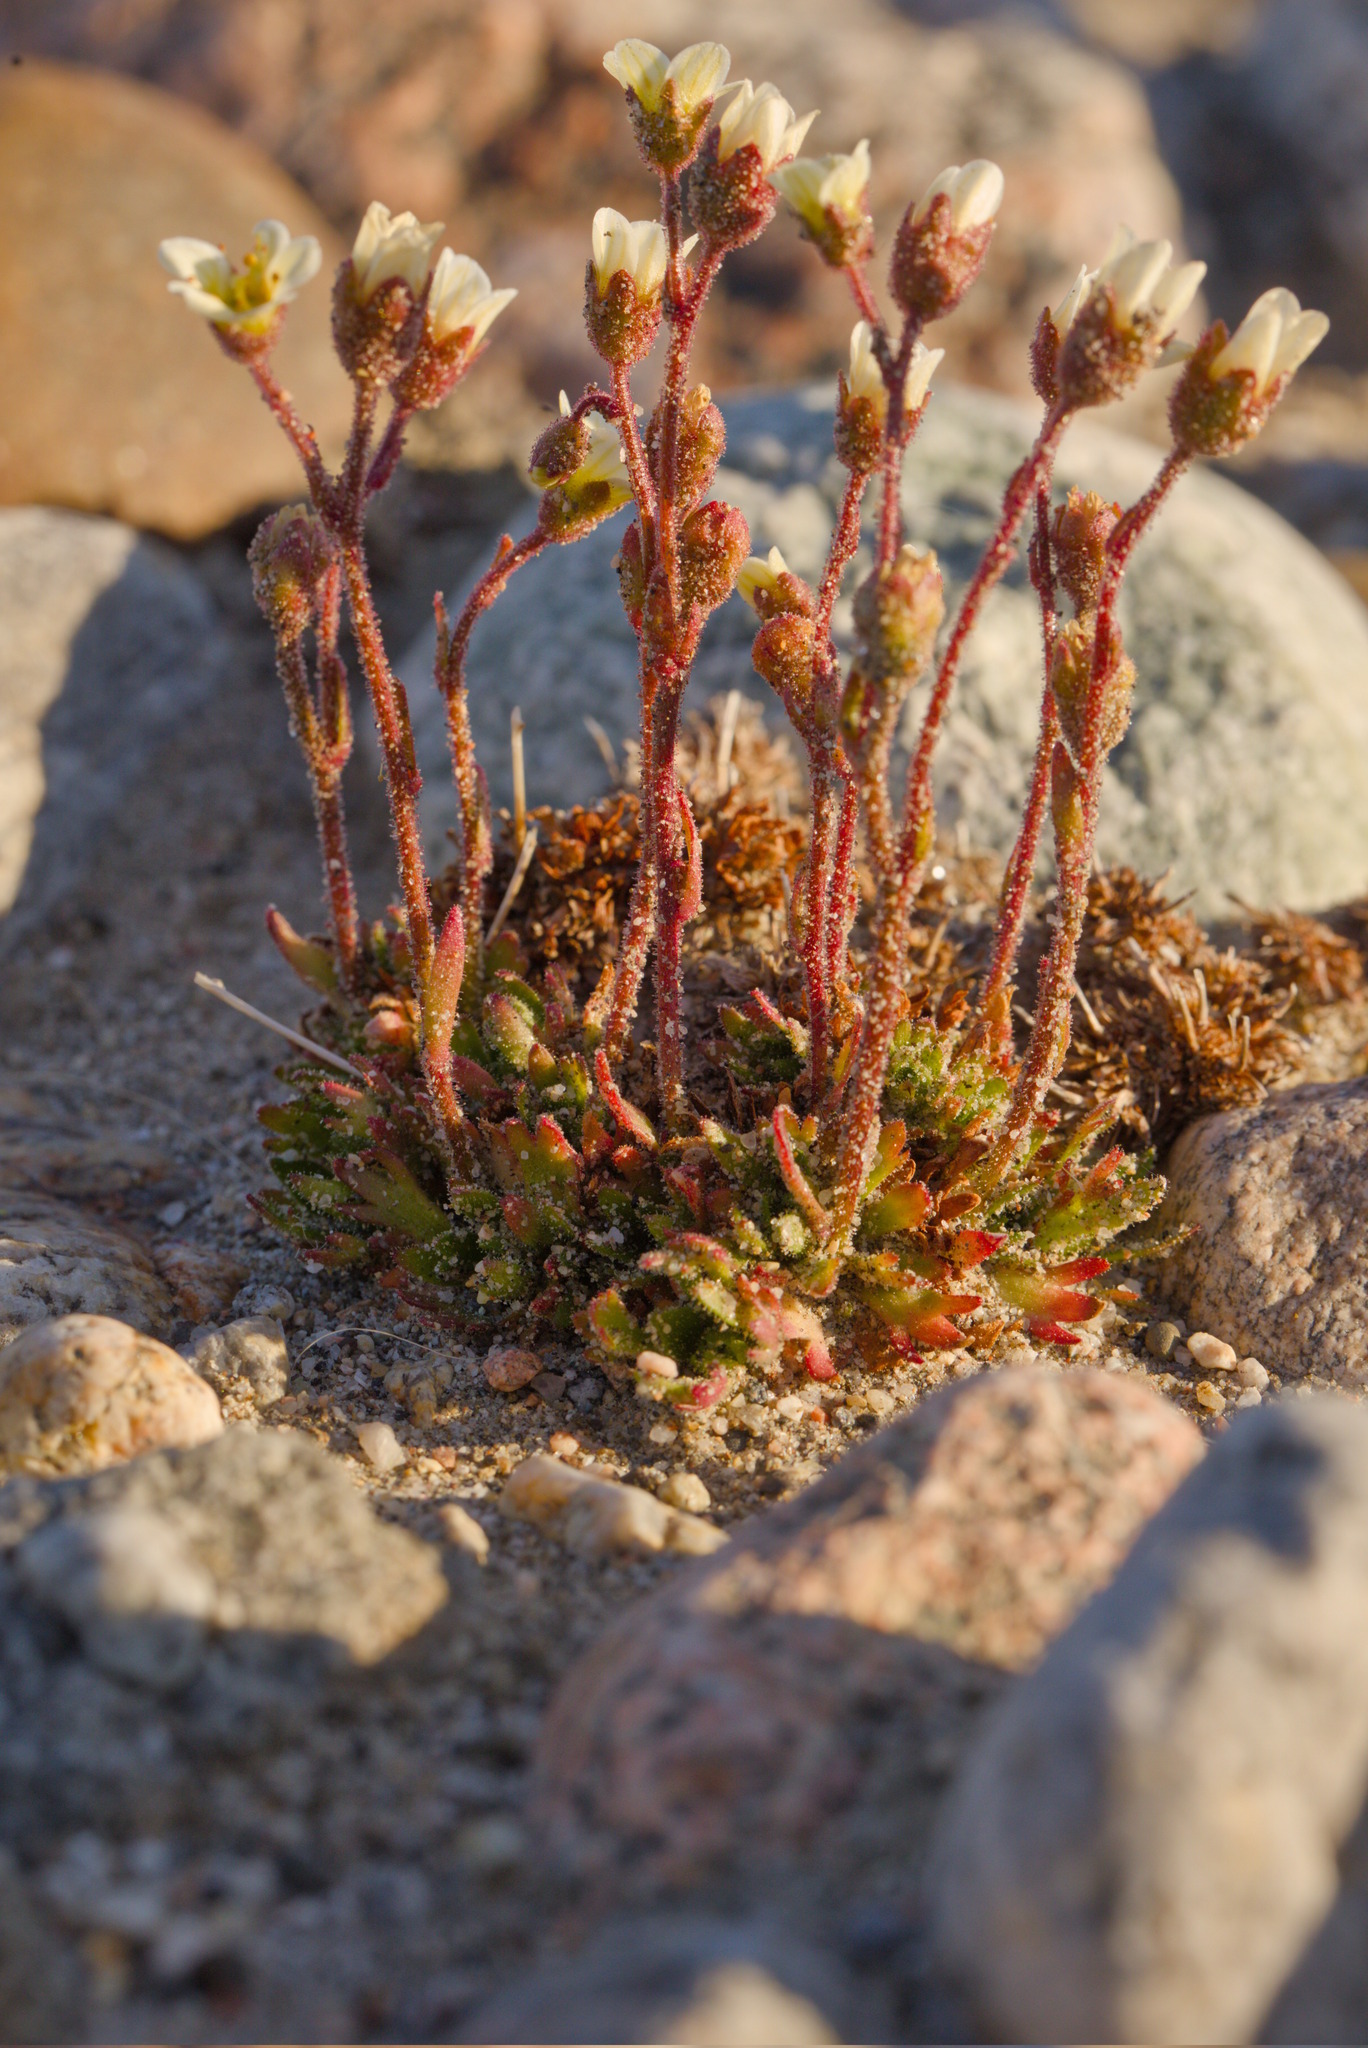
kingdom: Plantae
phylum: Tracheophyta
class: Magnoliopsida
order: Saxifragales
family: Saxifragaceae
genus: Saxifraga
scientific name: Saxifraga cespitosa
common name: Tufted saxifrage
